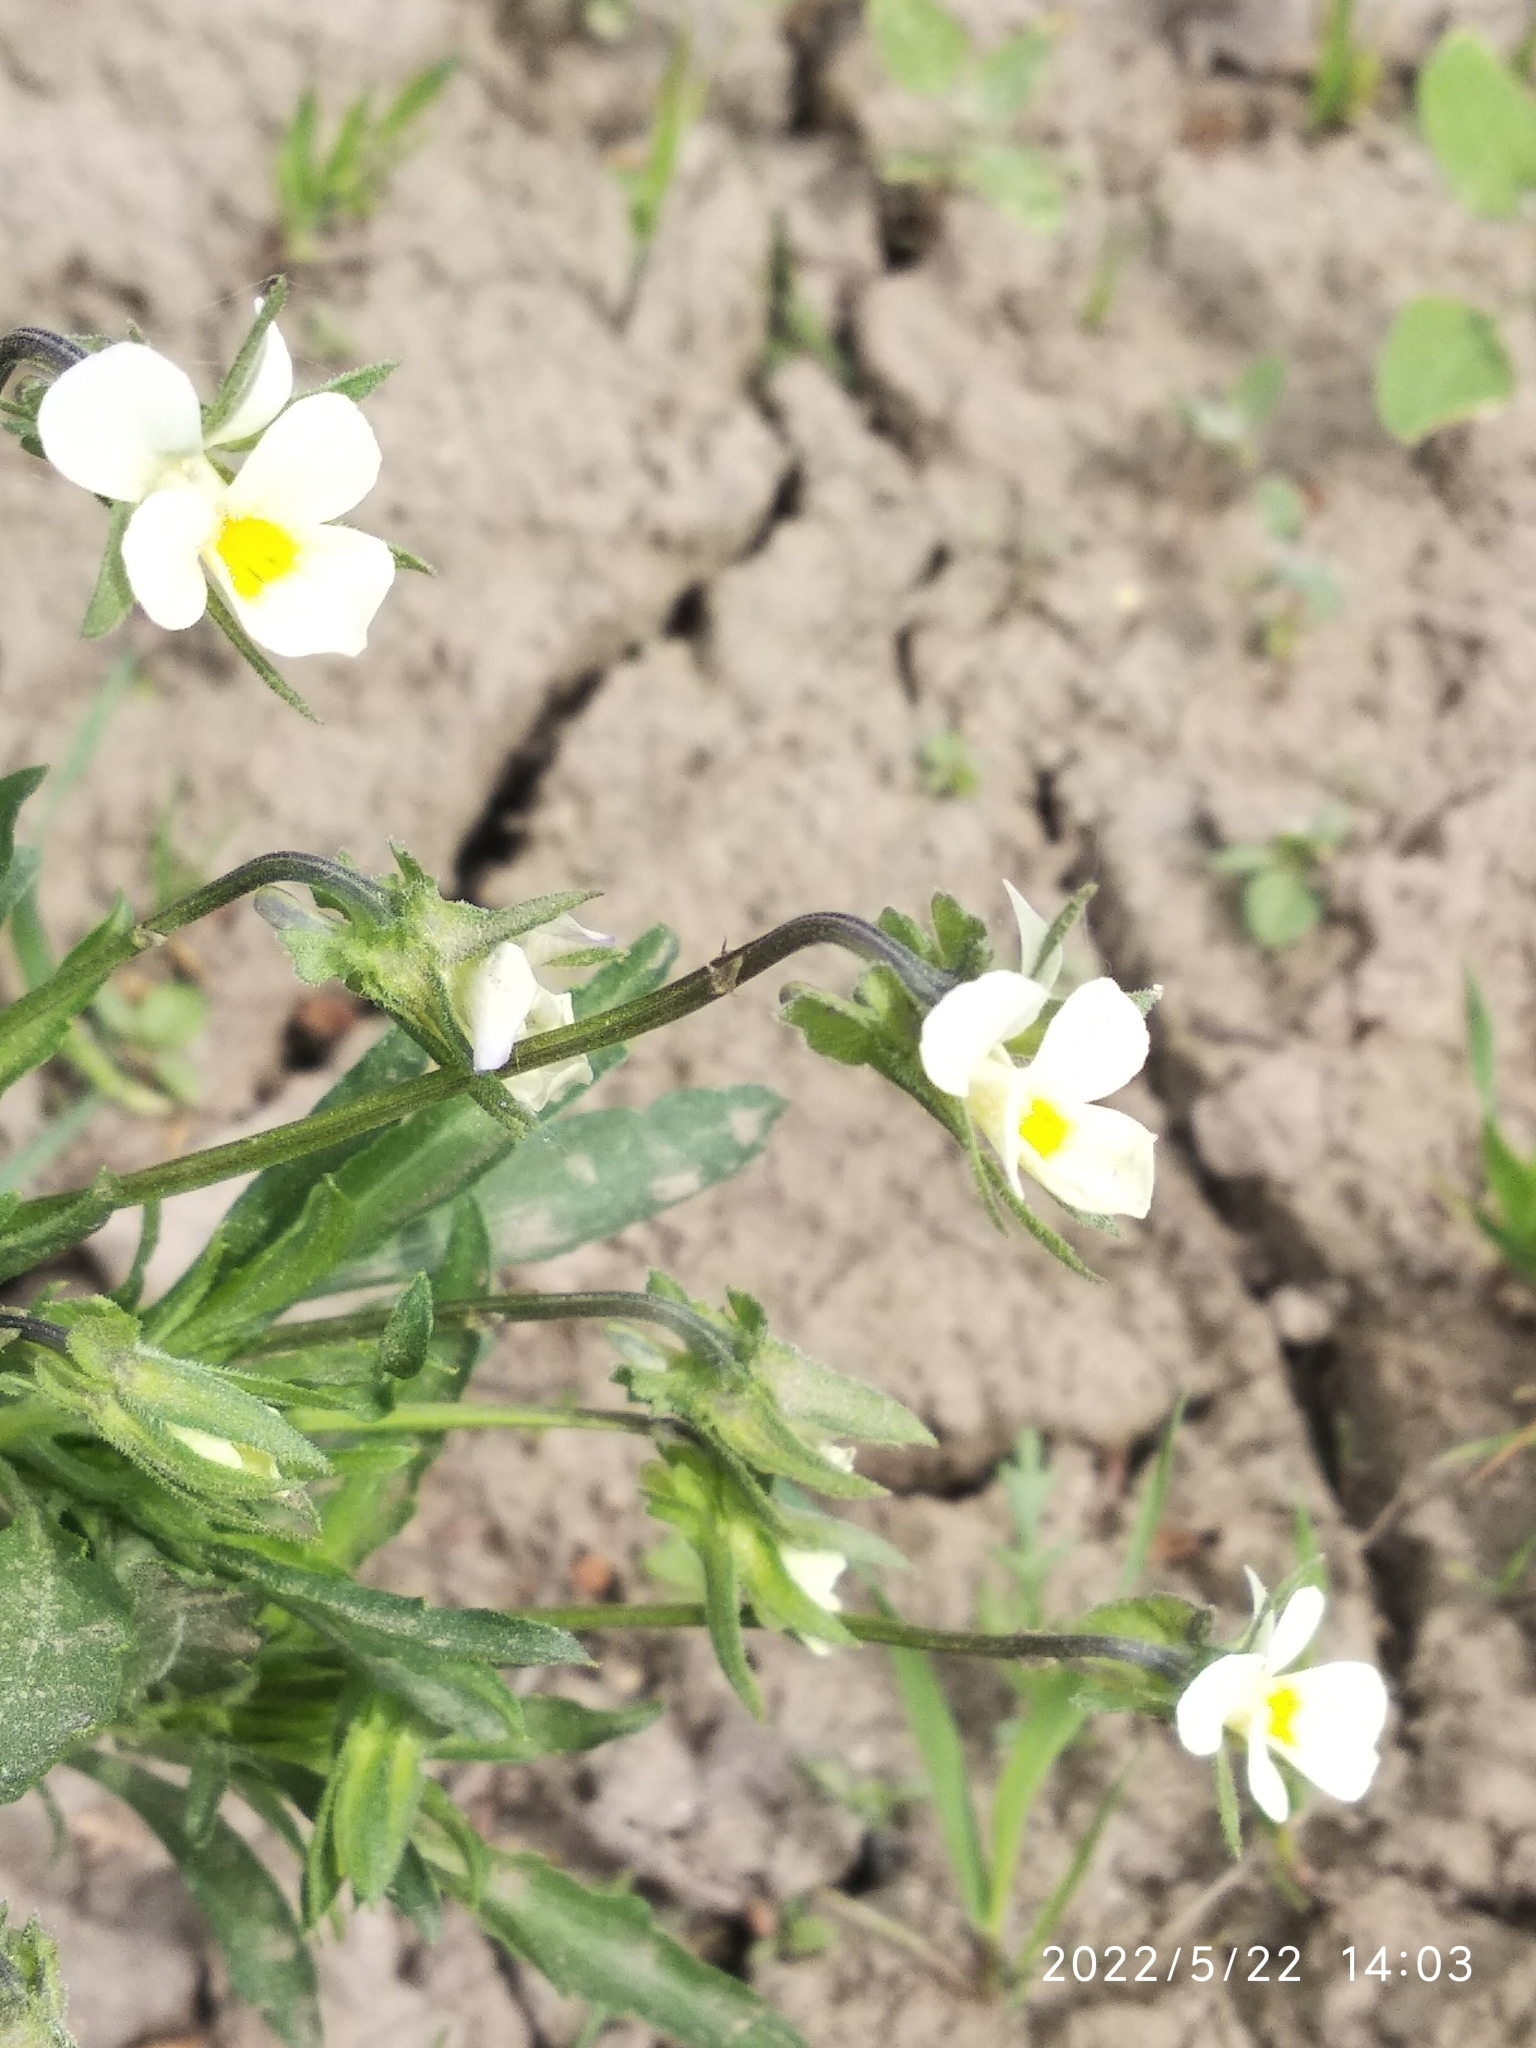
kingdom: Plantae
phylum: Tracheophyta
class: Magnoliopsida
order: Malpighiales
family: Violaceae
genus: Viola
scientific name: Viola arvensis
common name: Field pansy
